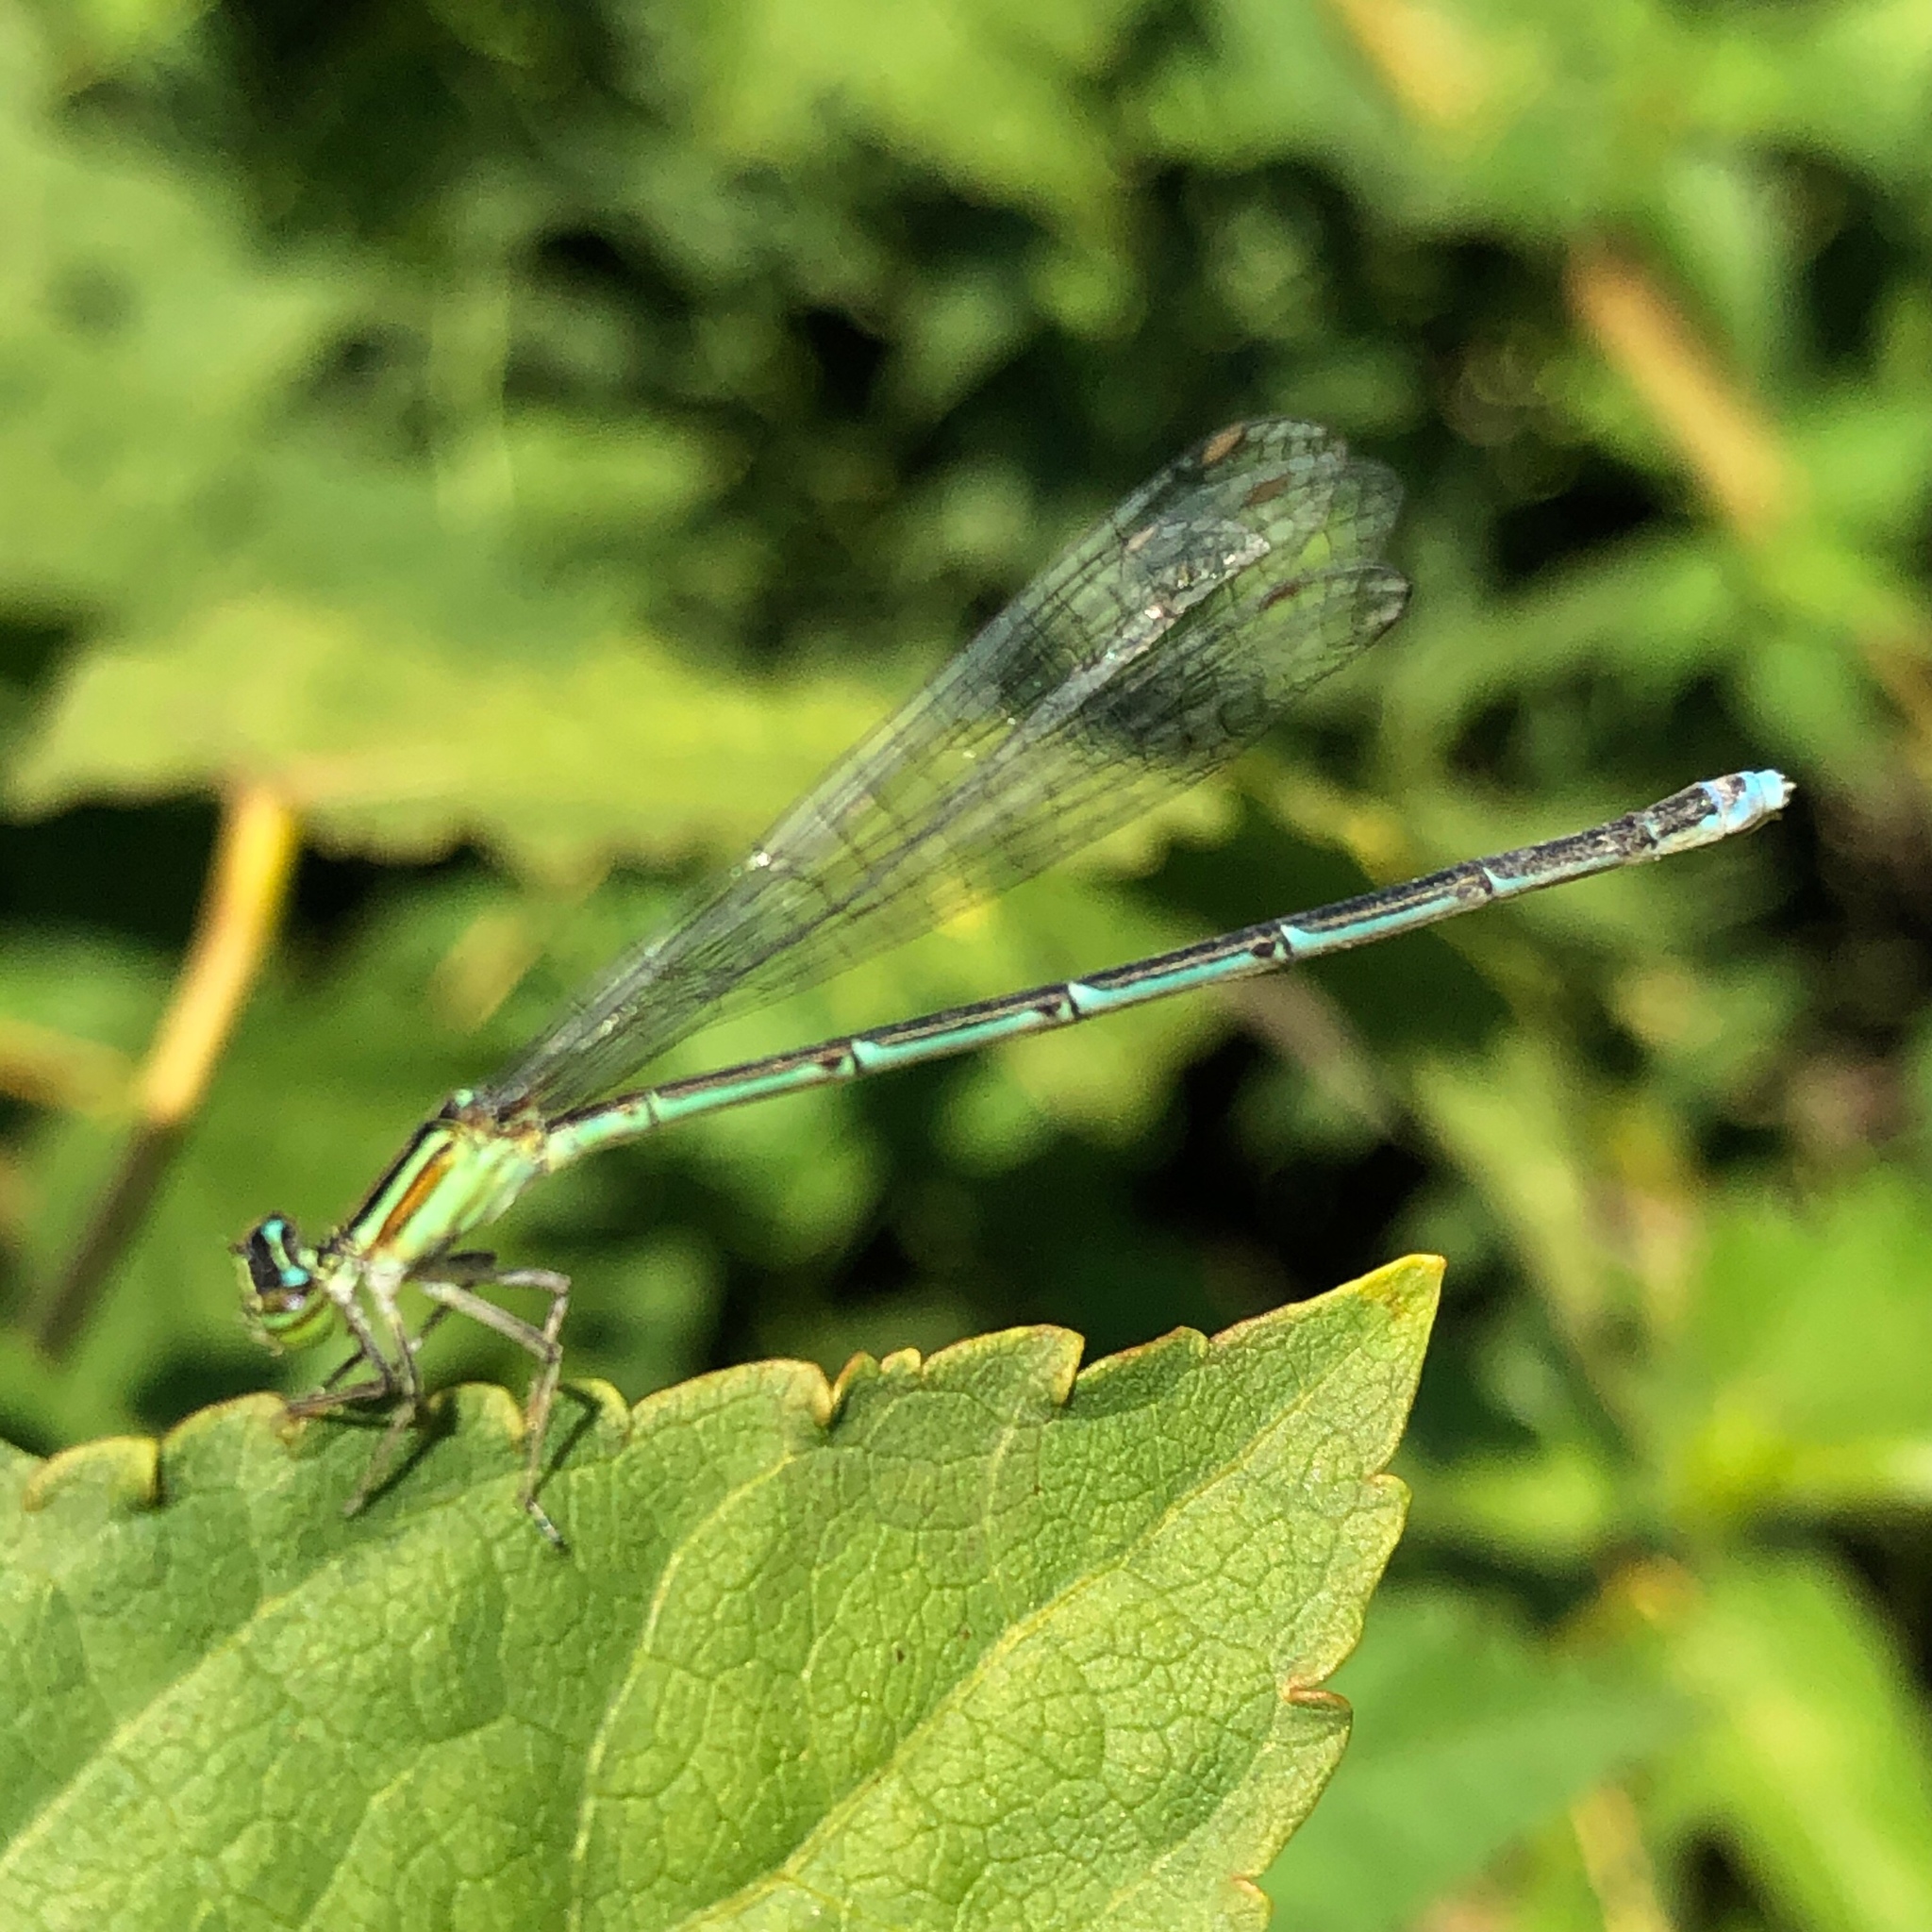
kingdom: Animalia
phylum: Arthropoda
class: Insecta
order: Odonata
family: Coenagrionidae
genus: Enallagma
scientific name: Enallagma exsulans
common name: Stream bluet
